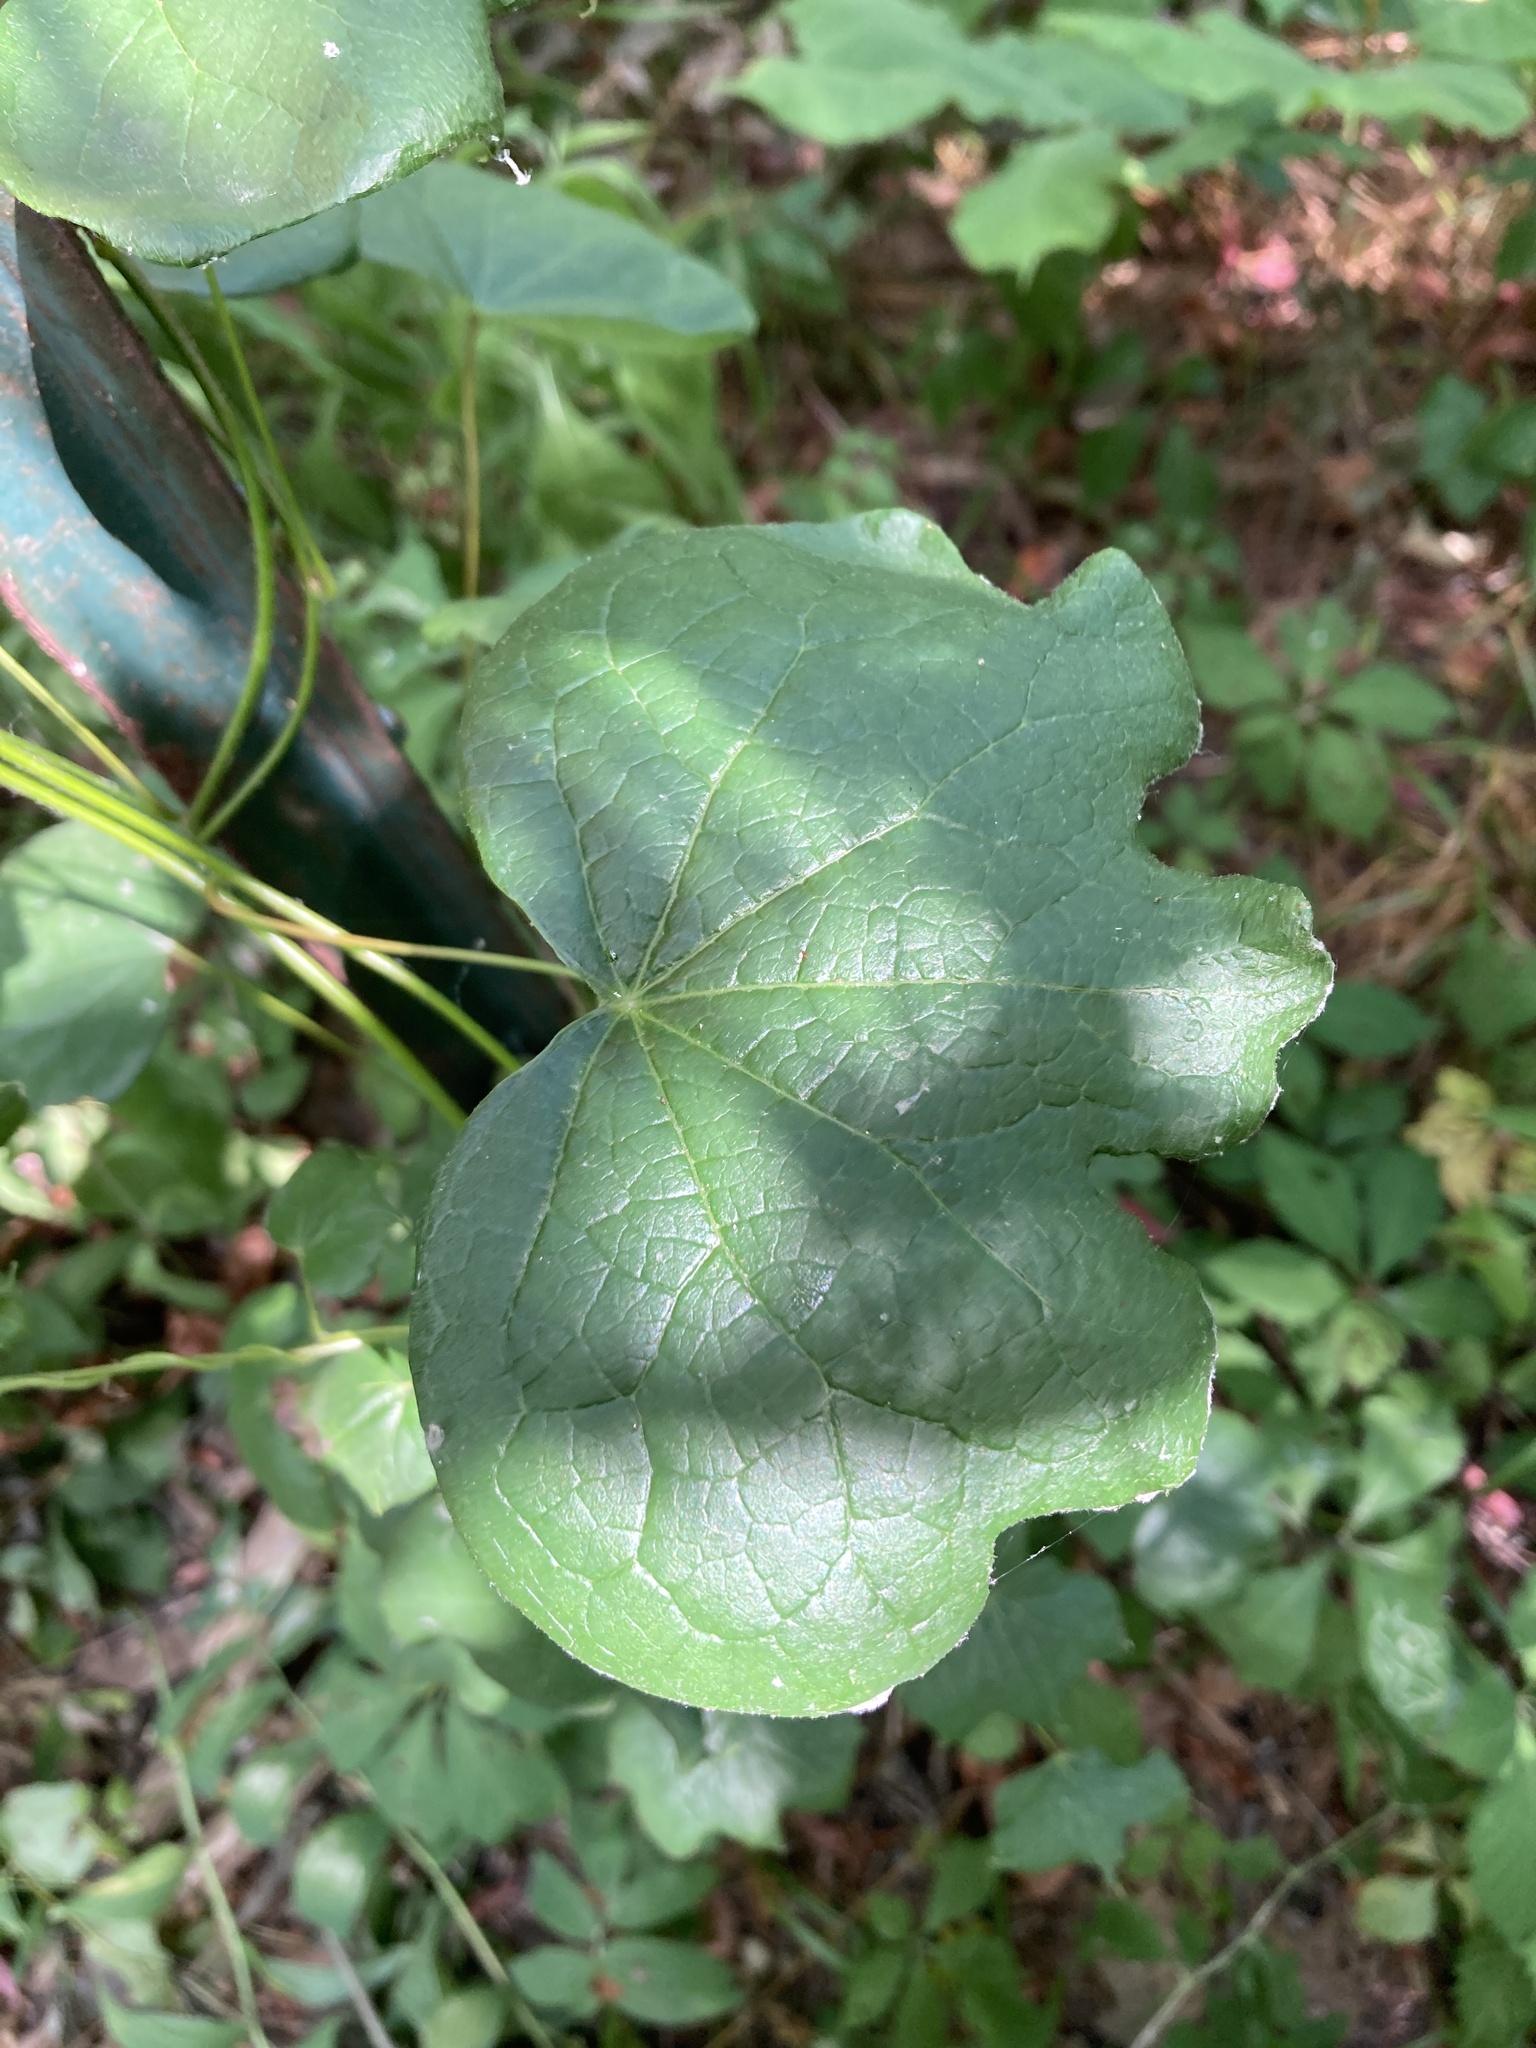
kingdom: Plantae
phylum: Tracheophyta
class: Magnoliopsida
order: Ranunculales
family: Menispermaceae
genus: Menispermum
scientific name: Menispermum canadense
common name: Moonseed
